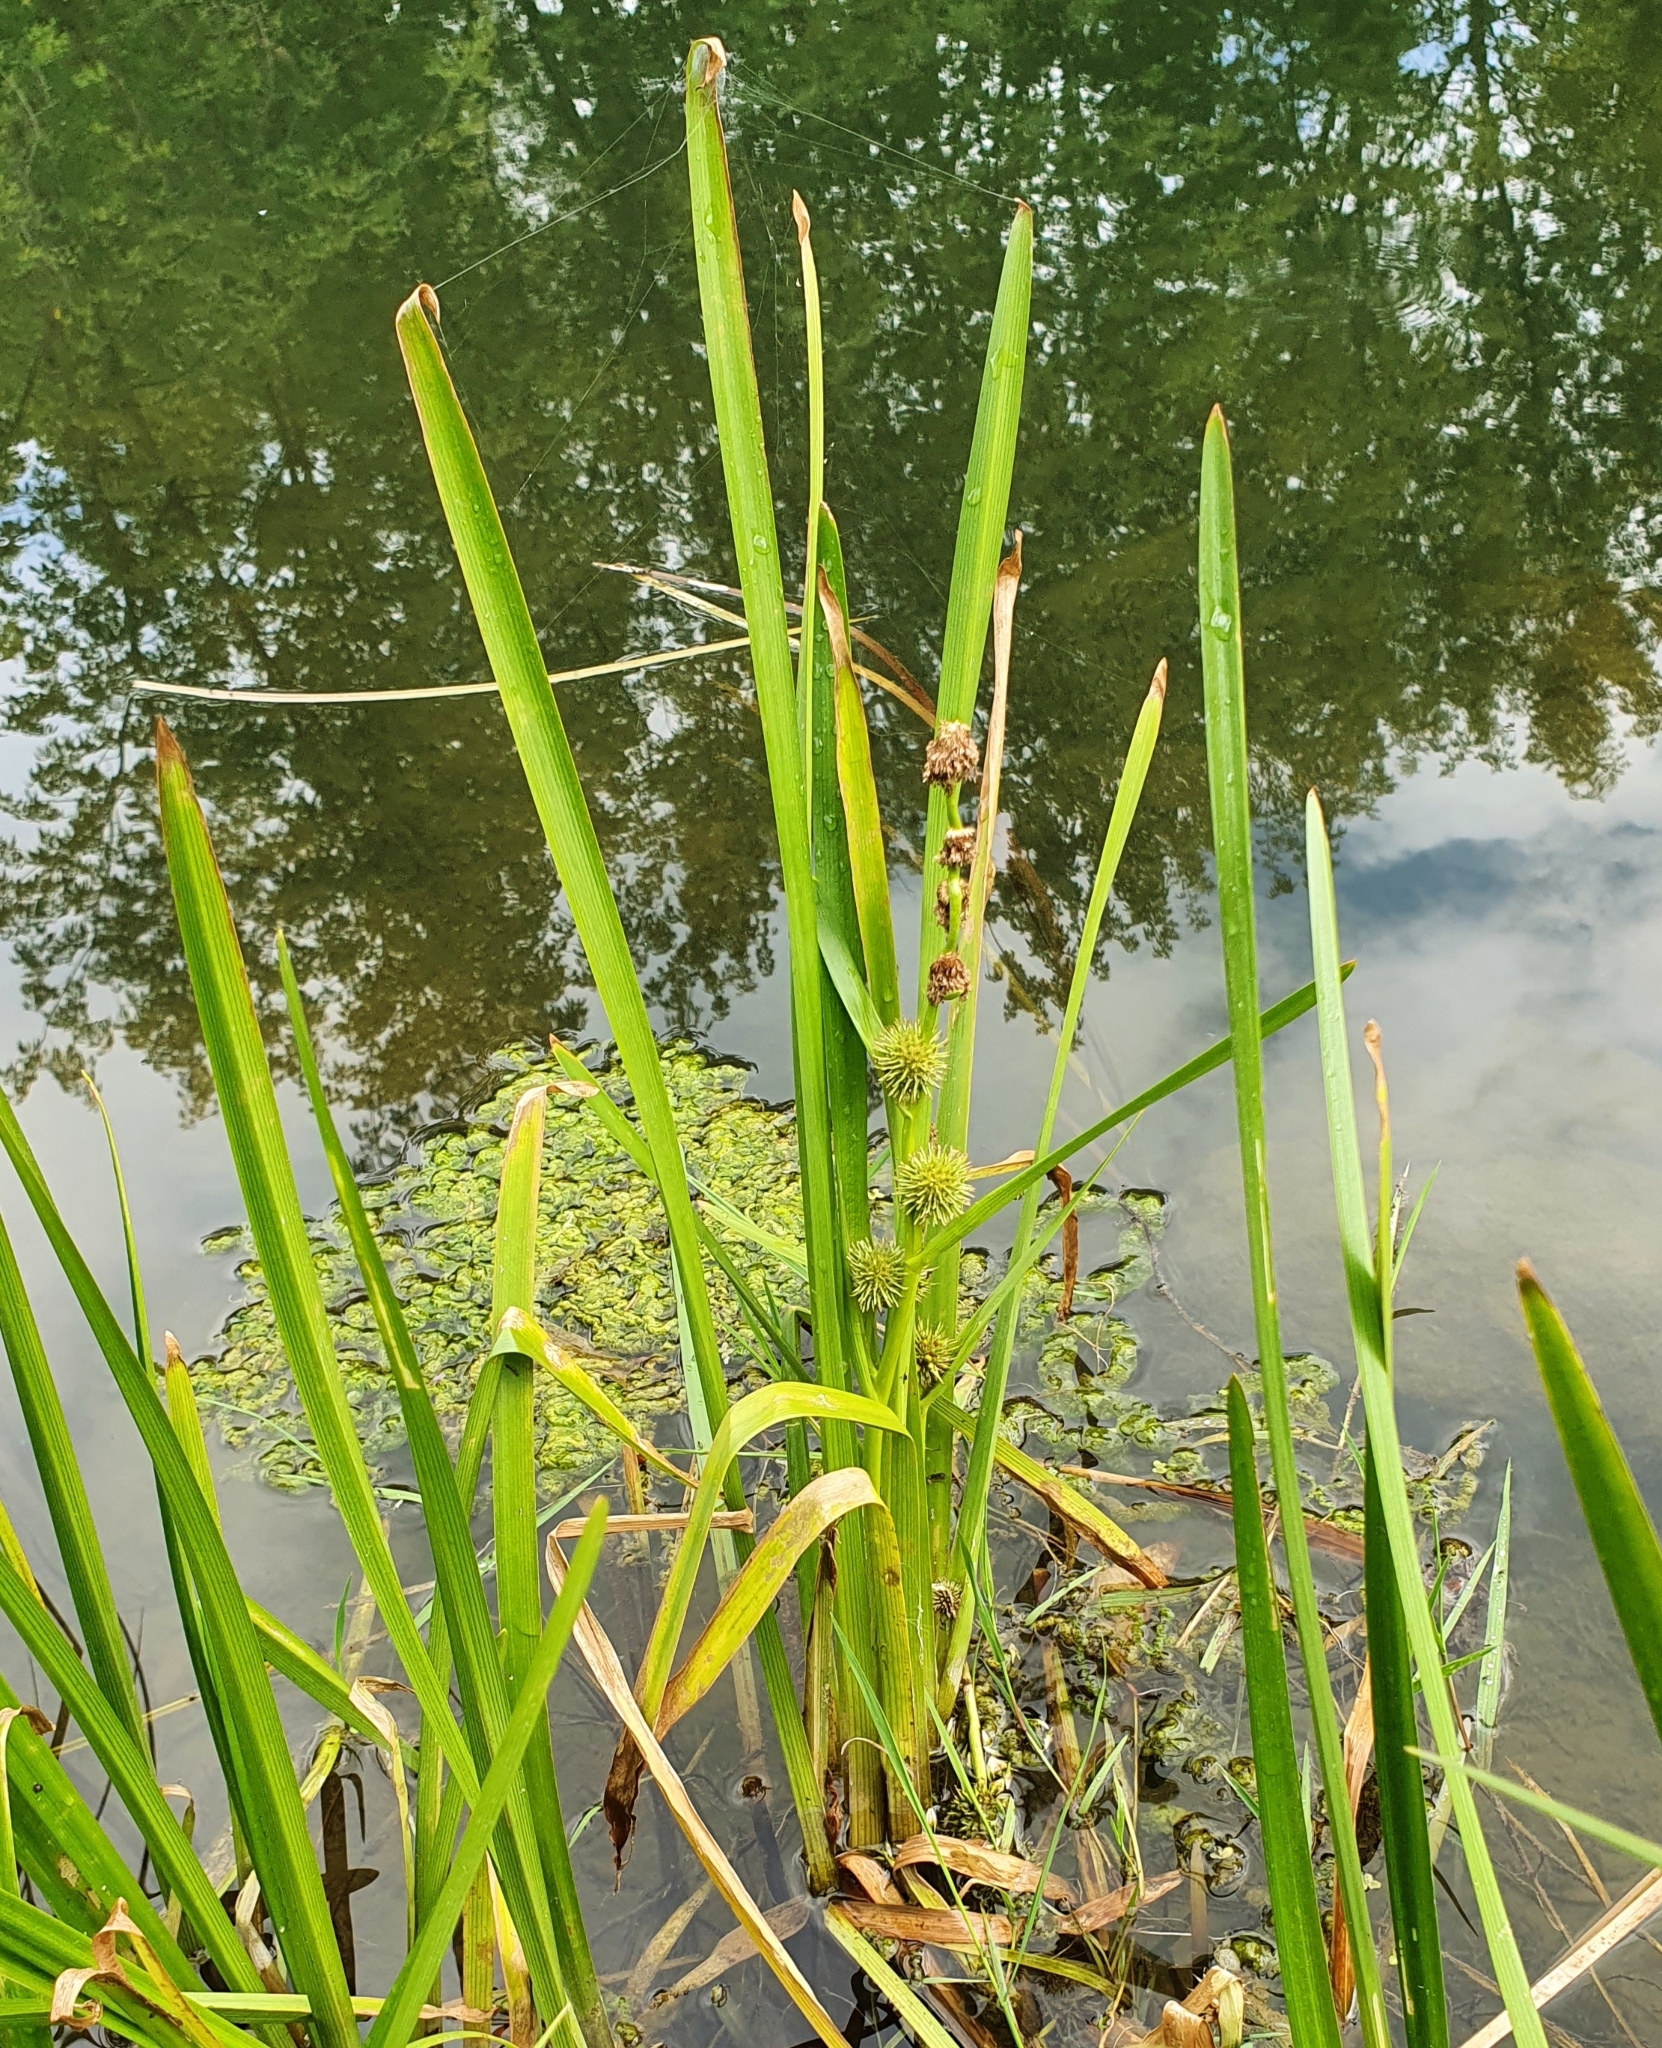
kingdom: Plantae
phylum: Tracheophyta
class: Liliopsida
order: Poales
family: Typhaceae
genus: Sparganium
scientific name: Sparganium emersum
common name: Unbranched bur-reed
